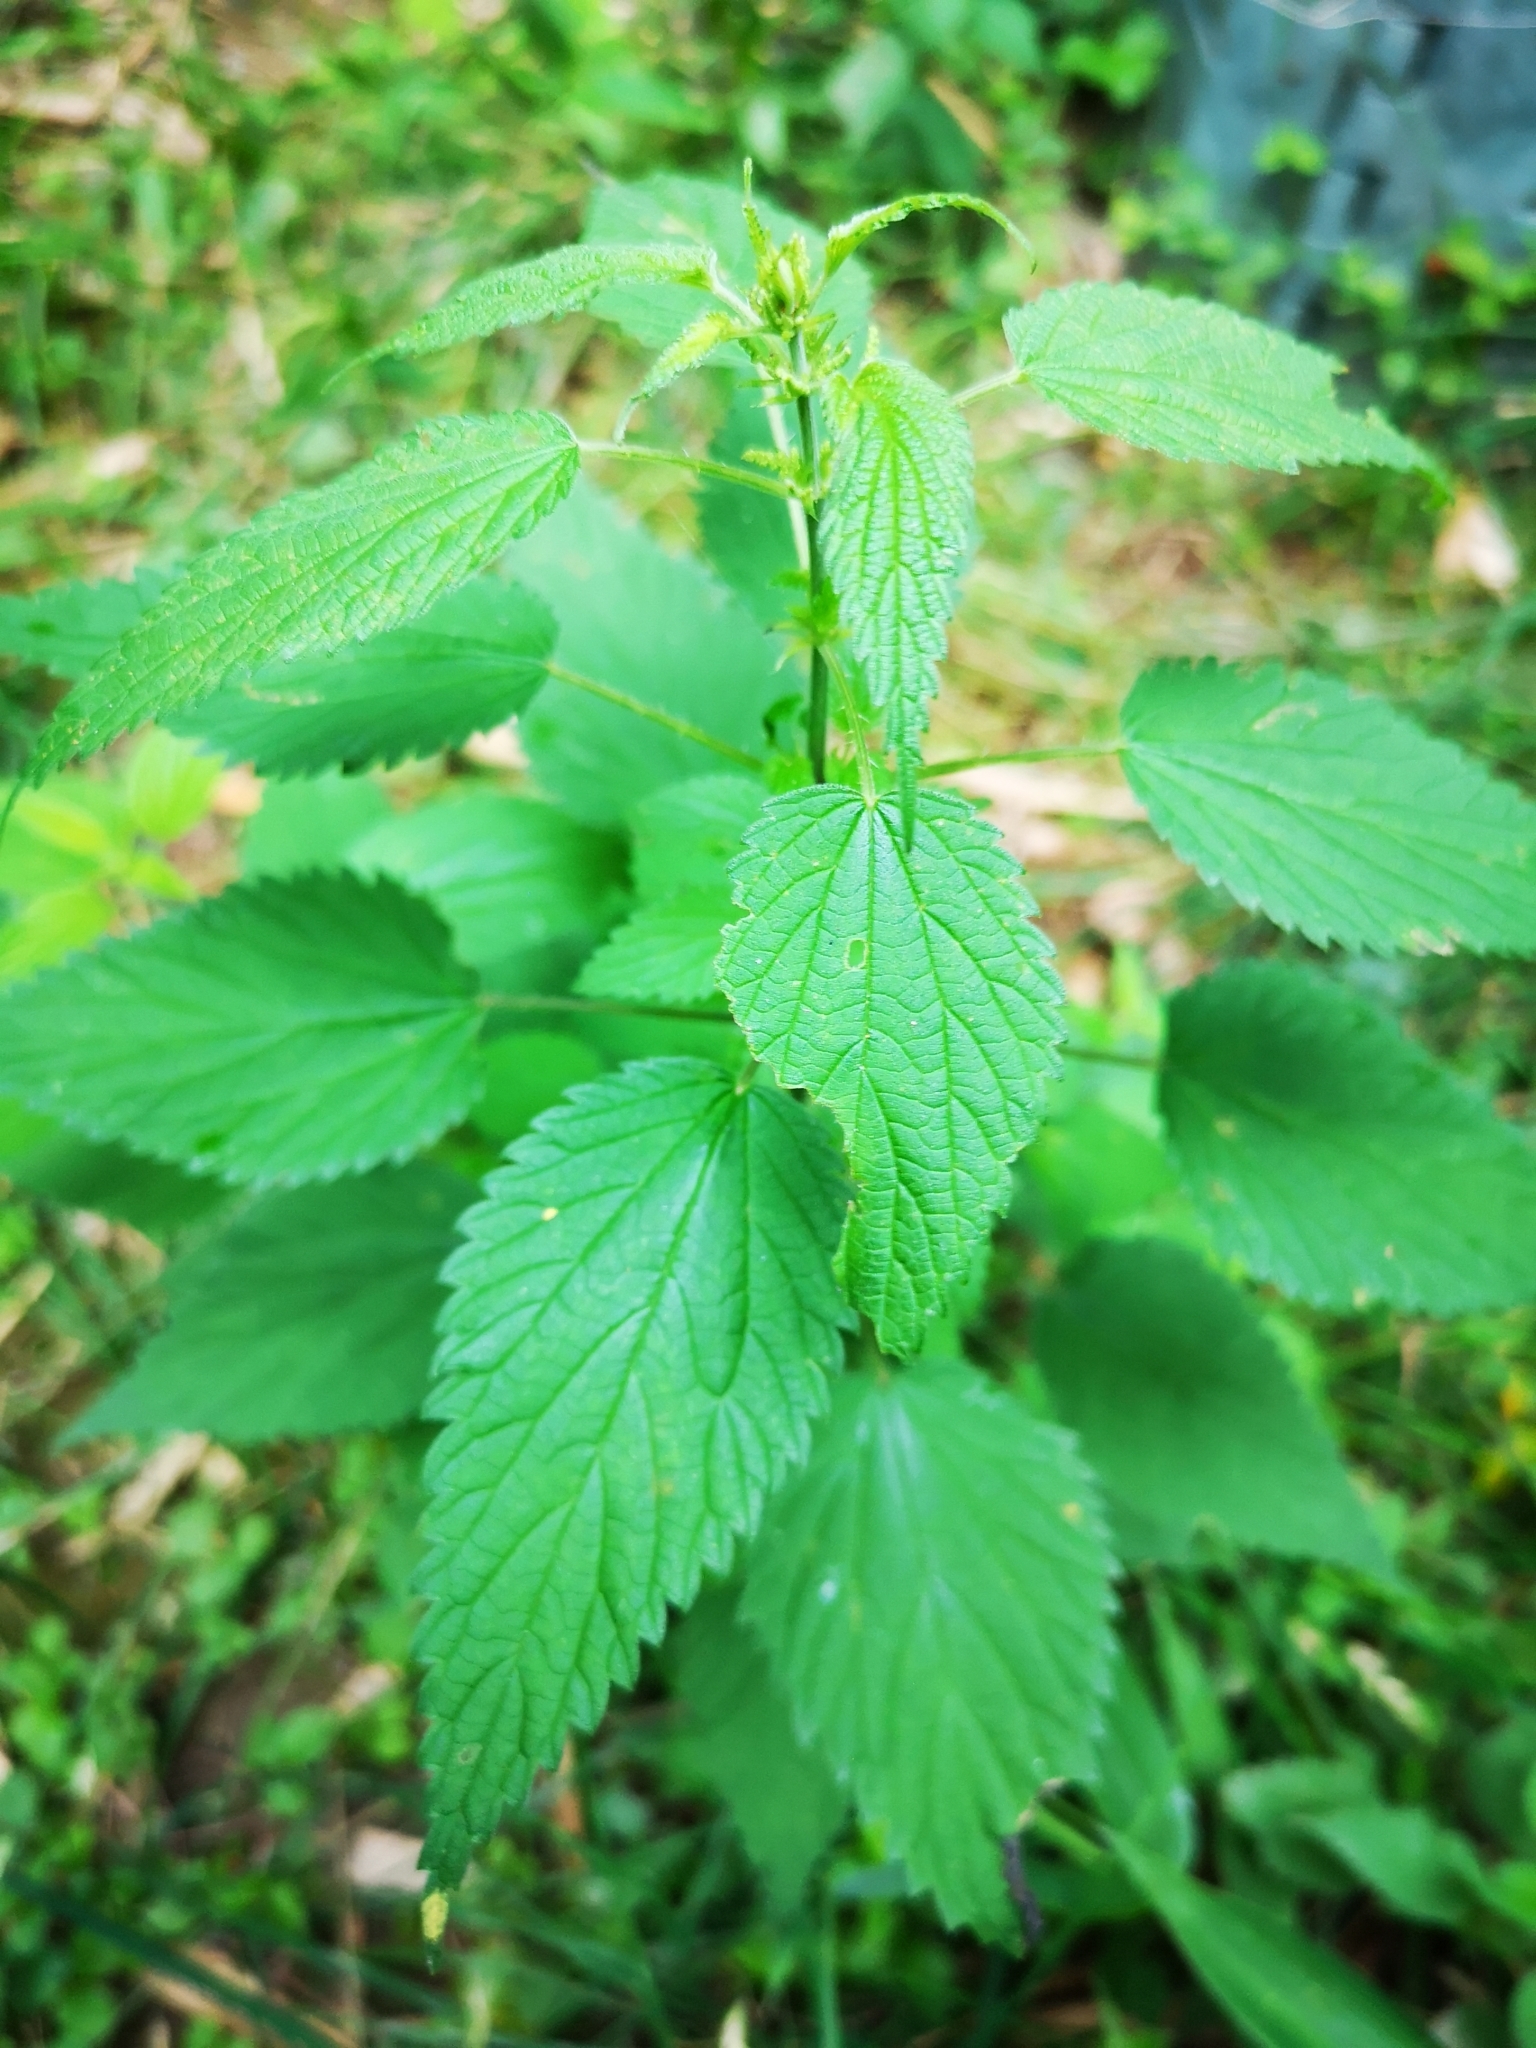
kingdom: Plantae
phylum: Tracheophyta
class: Magnoliopsida
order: Rosales
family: Urticaceae
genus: Urtica
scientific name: Urtica dioica
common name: Common nettle
